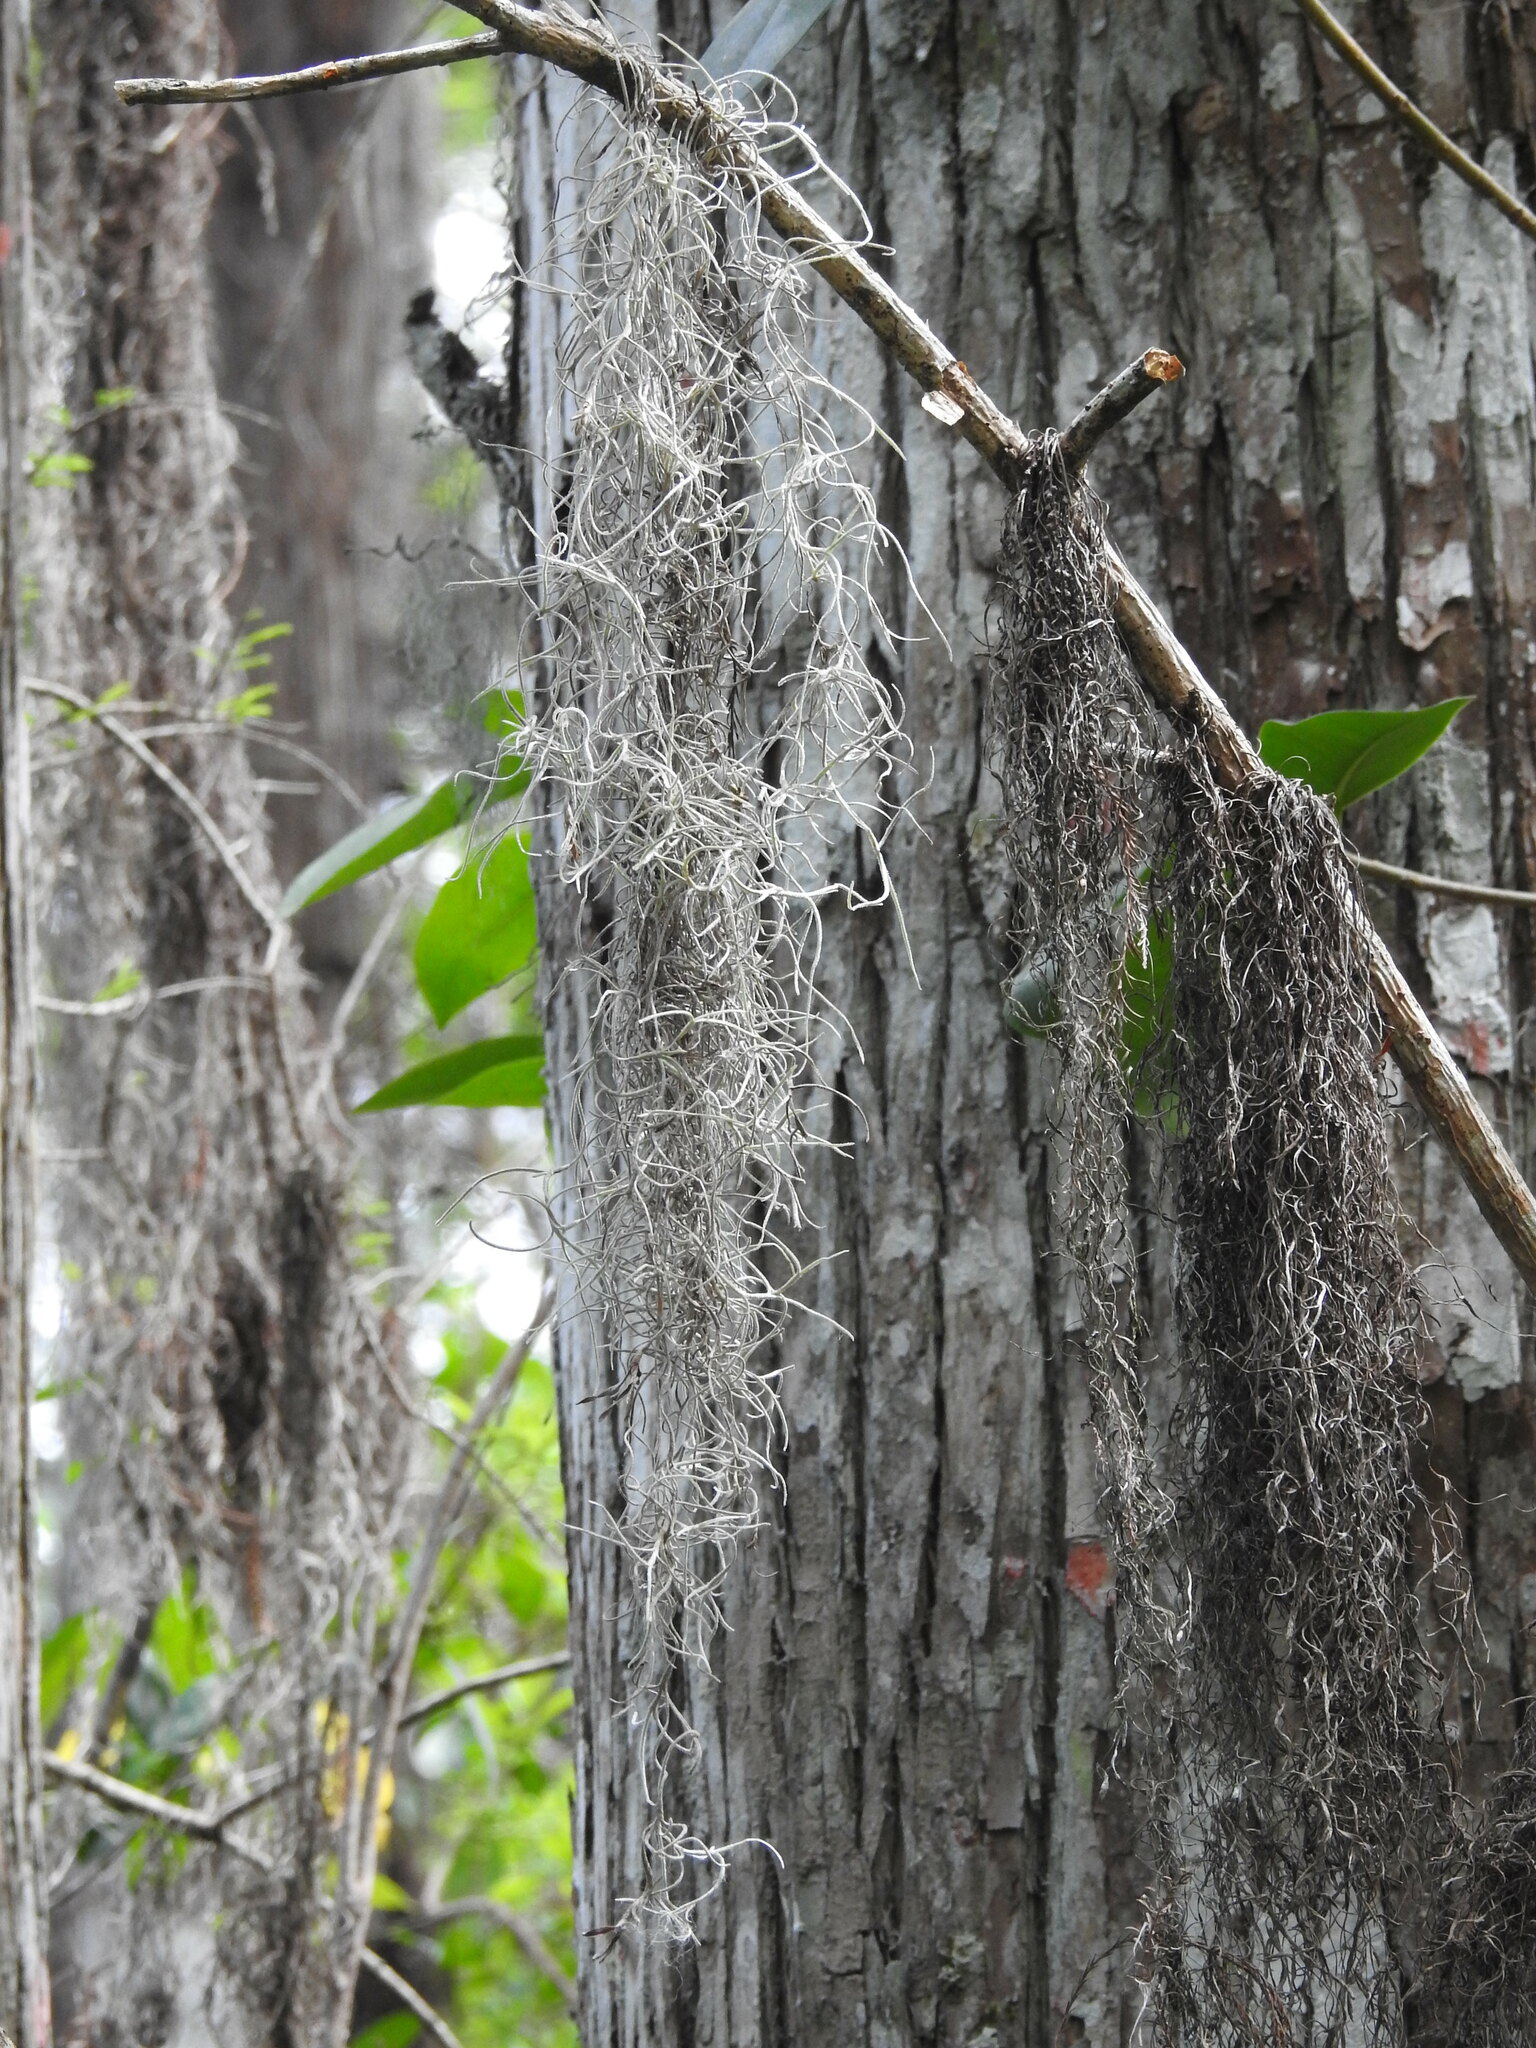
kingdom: Plantae
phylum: Tracheophyta
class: Liliopsida
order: Poales
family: Bromeliaceae
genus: Tillandsia
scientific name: Tillandsia usneoides
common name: Spanish moss
